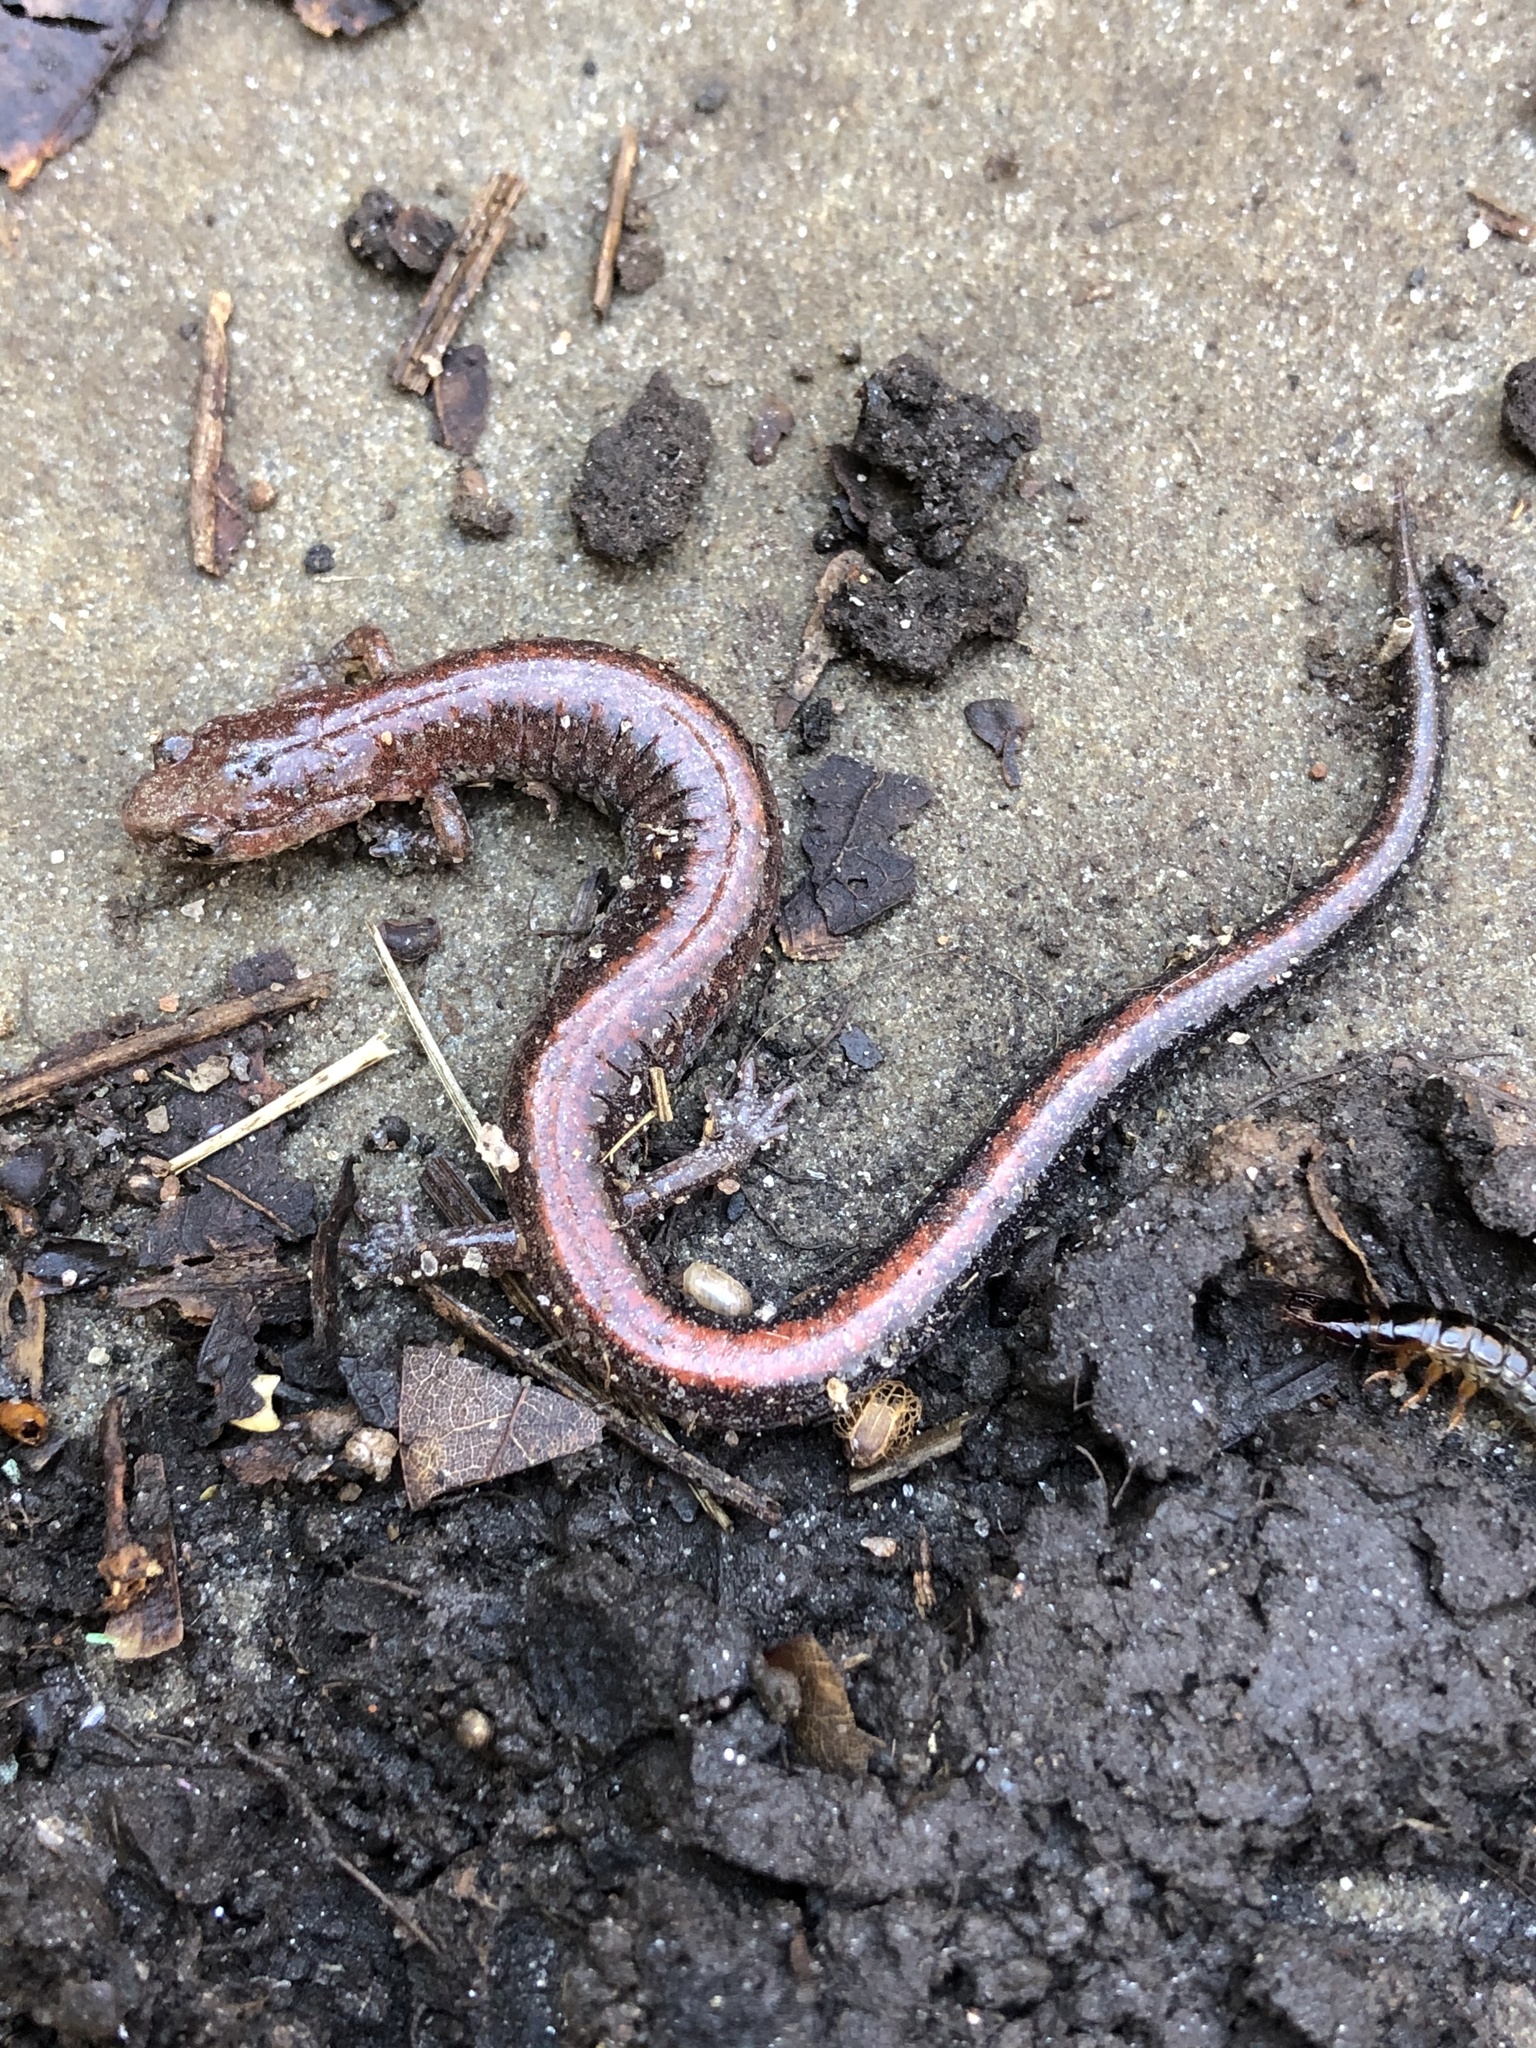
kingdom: Animalia
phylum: Chordata
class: Amphibia
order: Caudata
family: Plethodontidae
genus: Plethodon
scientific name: Plethodon serratus
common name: Southern red-backed salamander
